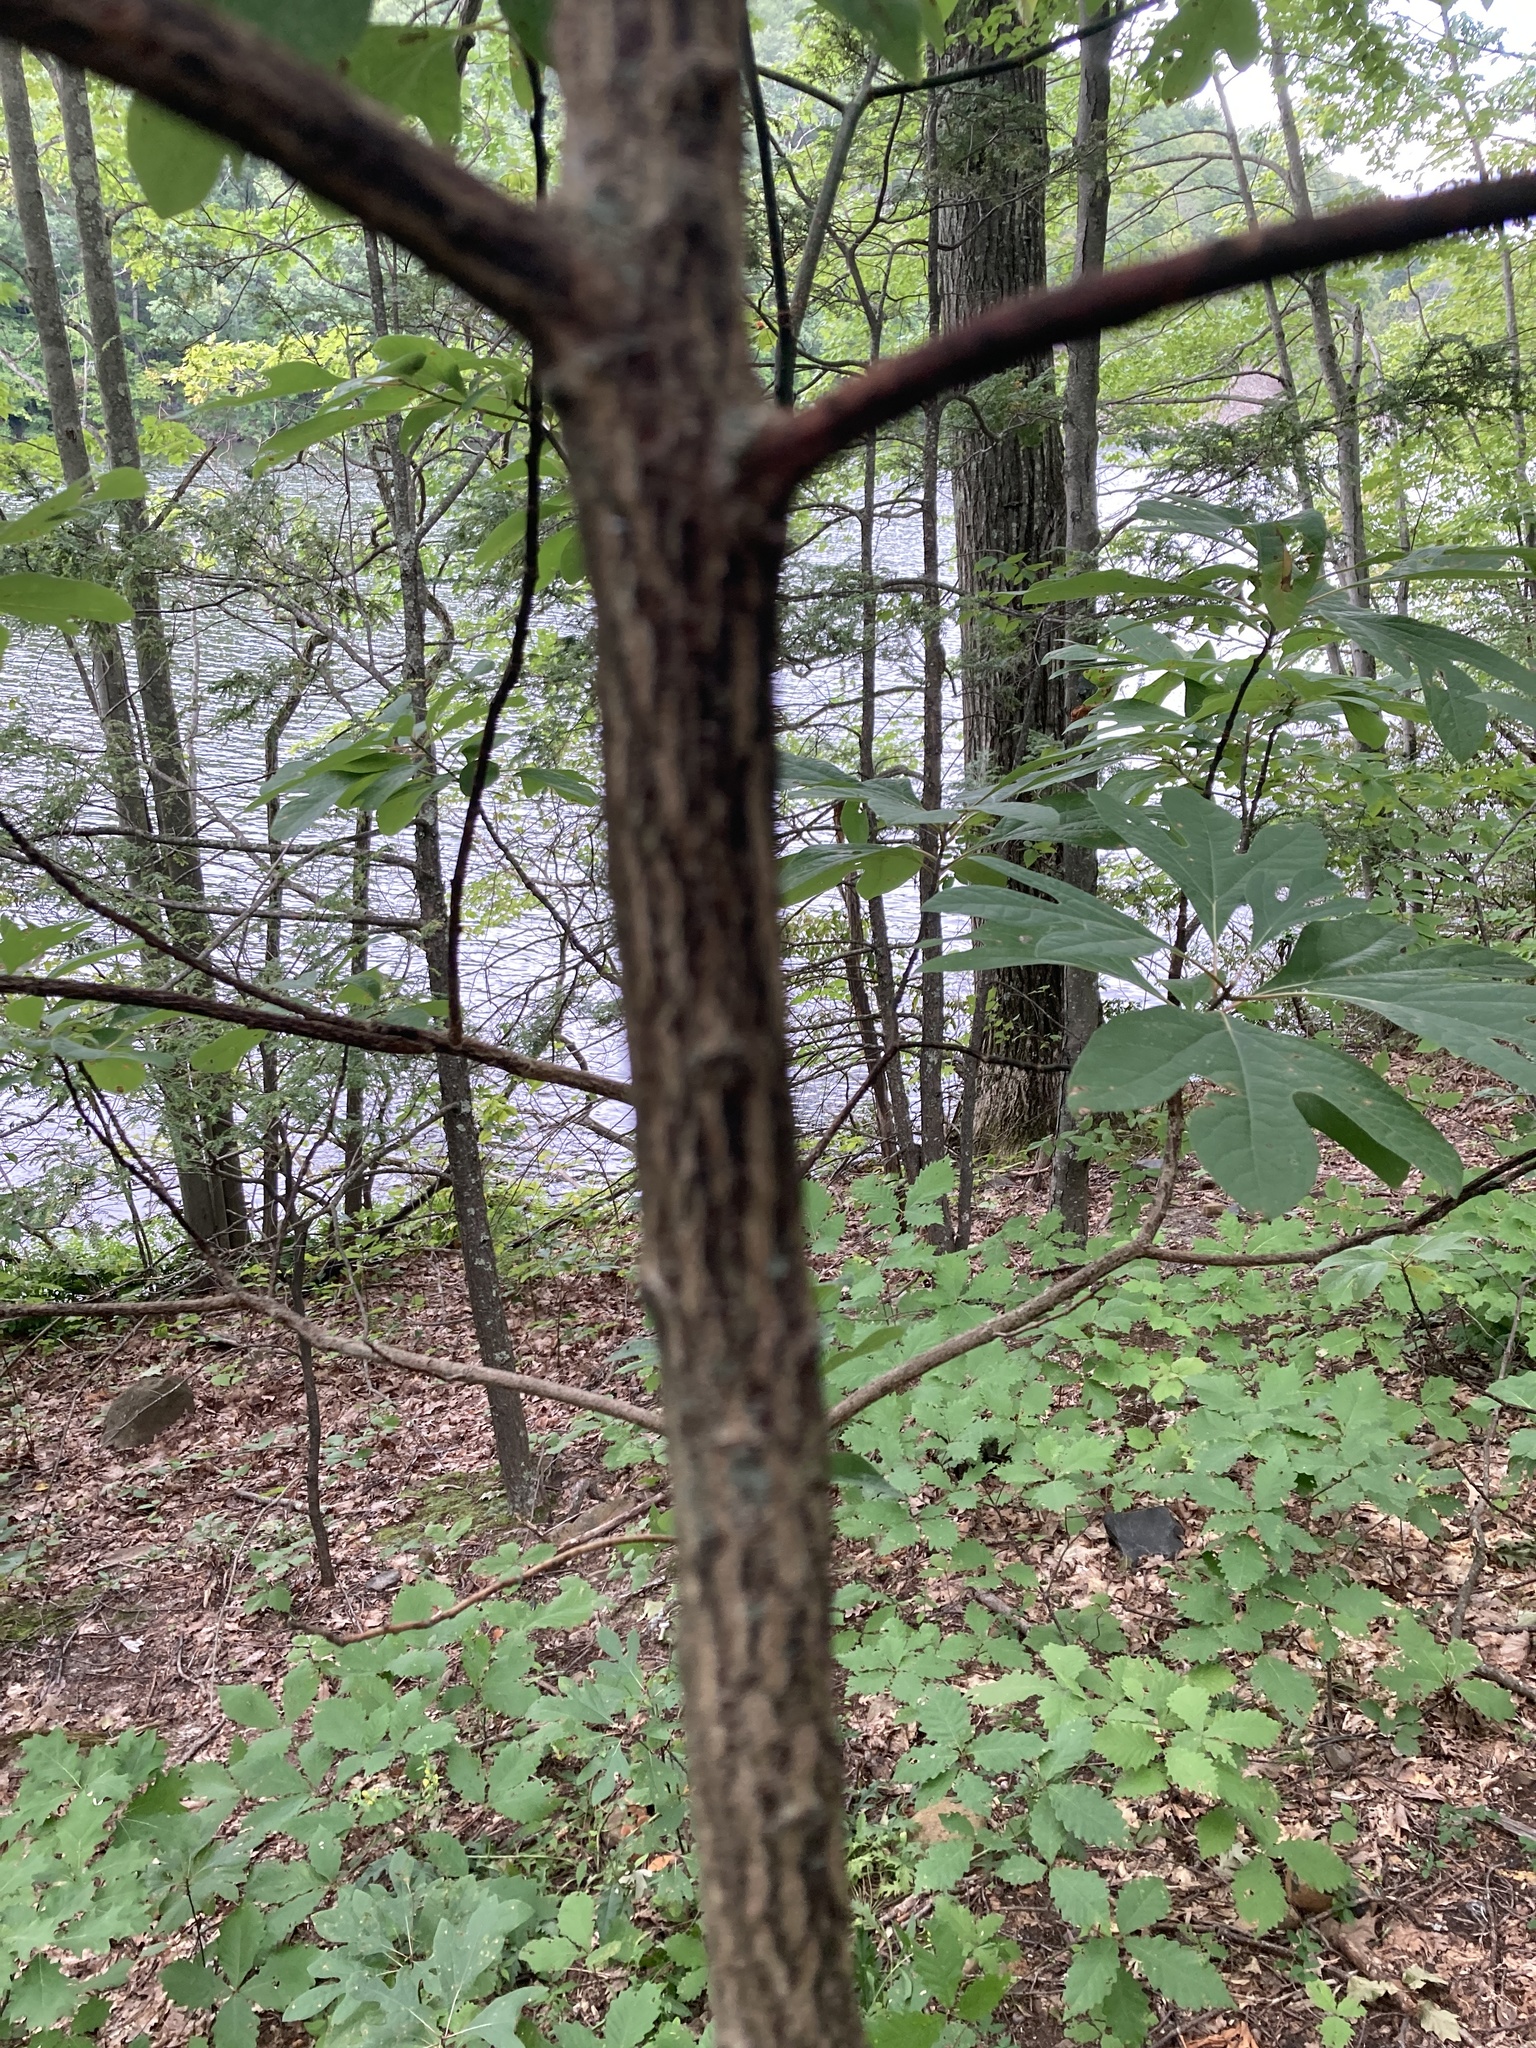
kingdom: Plantae
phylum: Tracheophyta
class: Magnoliopsida
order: Laurales
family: Lauraceae
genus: Sassafras
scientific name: Sassafras albidum
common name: Sassafras
